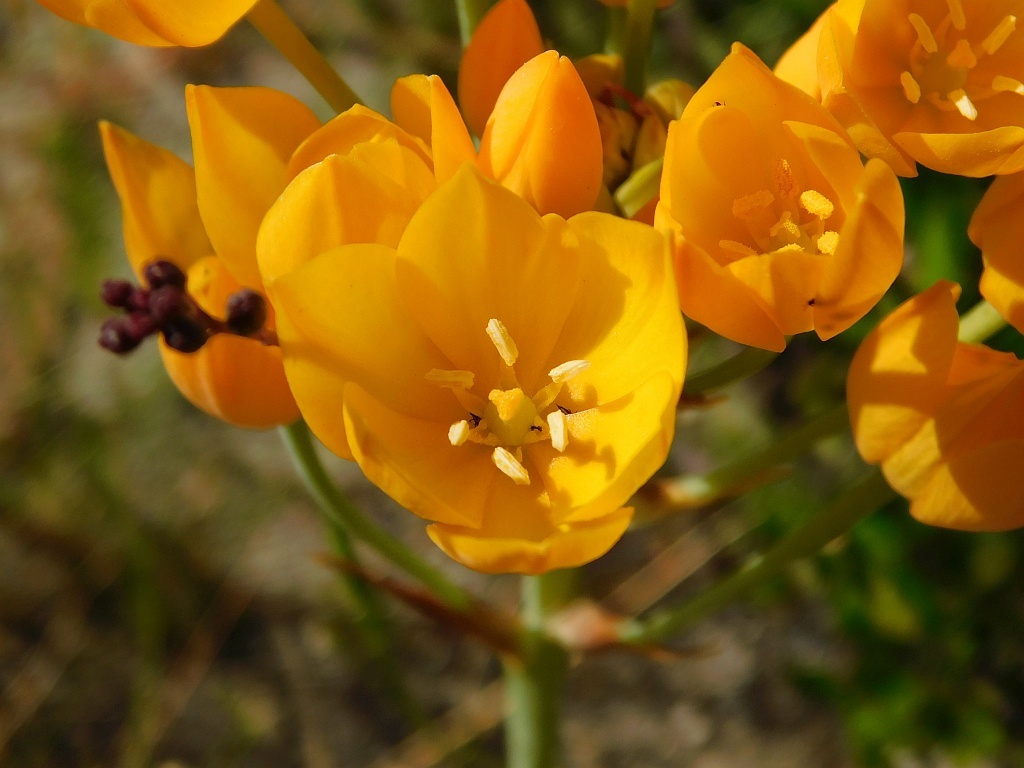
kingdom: Plantae
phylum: Tracheophyta
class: Liliopsida
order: Asparagales
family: Asparagaceae
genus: Ornithogalum
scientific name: Ornithogalum dubium
